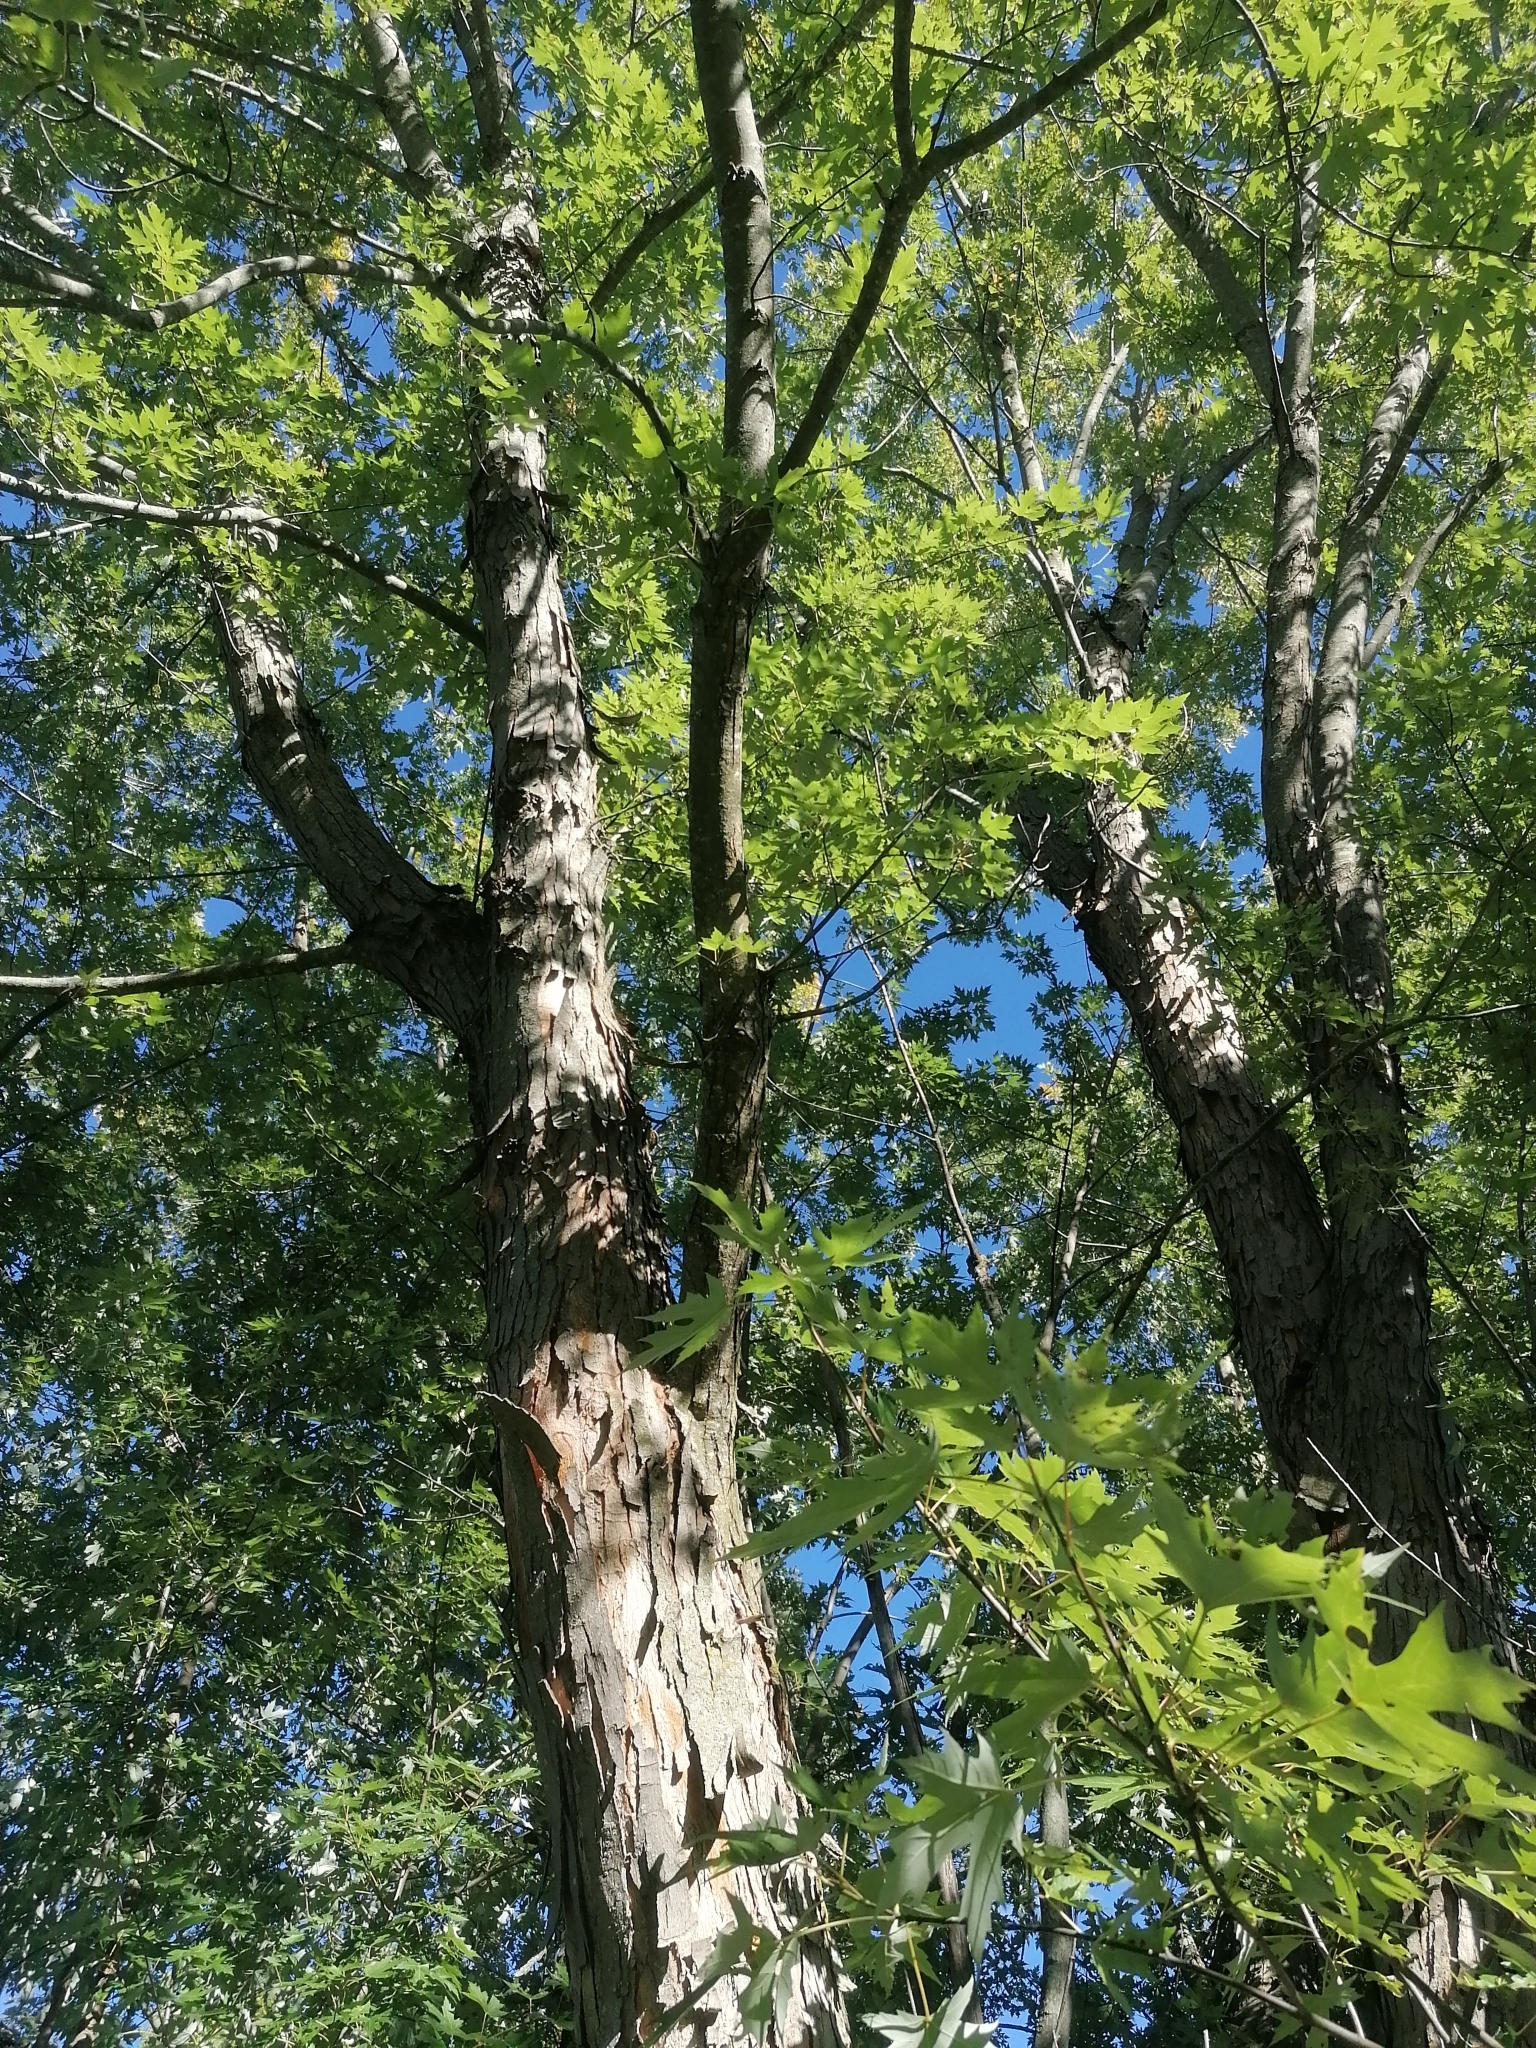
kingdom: Plantae
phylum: Tracheophyta
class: Magnoliopsida
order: Sapindales
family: Sapindaceae
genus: Acer
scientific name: Acer saccharinum
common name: Silver maple
